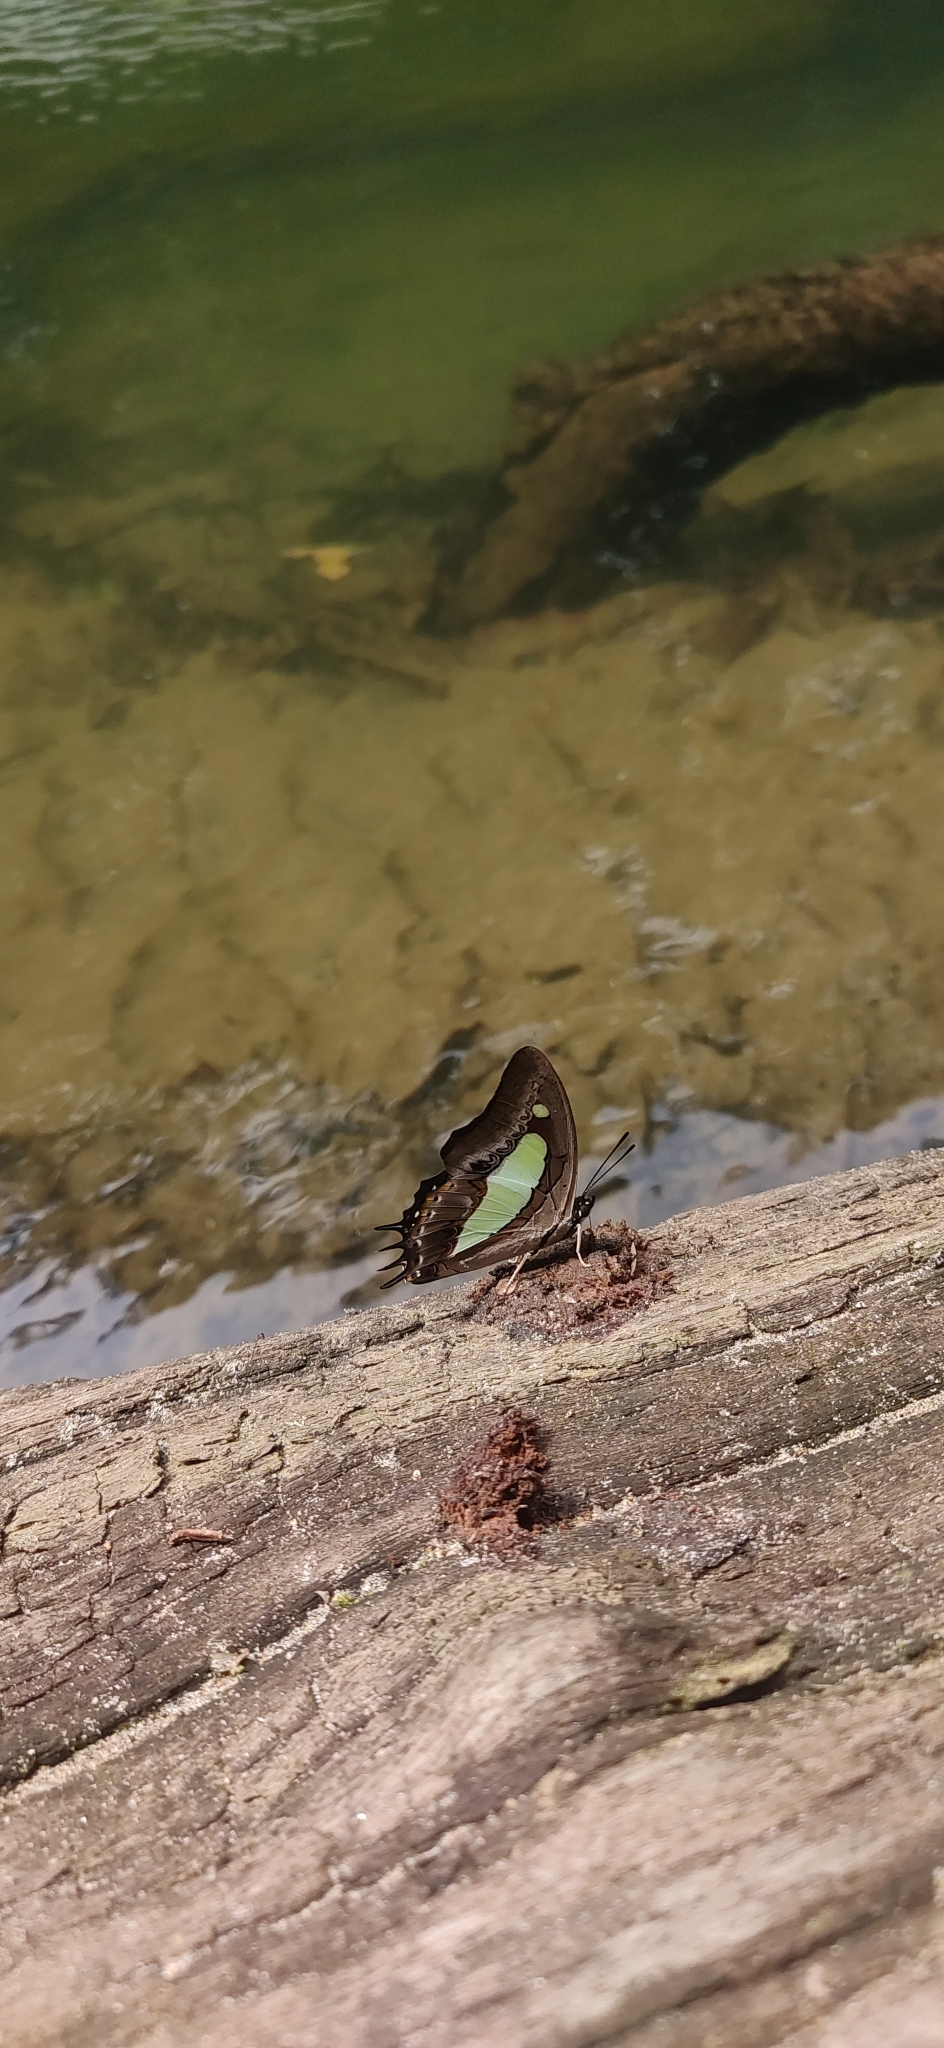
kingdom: Animalia
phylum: Arthropoda
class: Insecta
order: Lepidoptera
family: Nymphalidae
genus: Polyura
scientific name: Polyura
